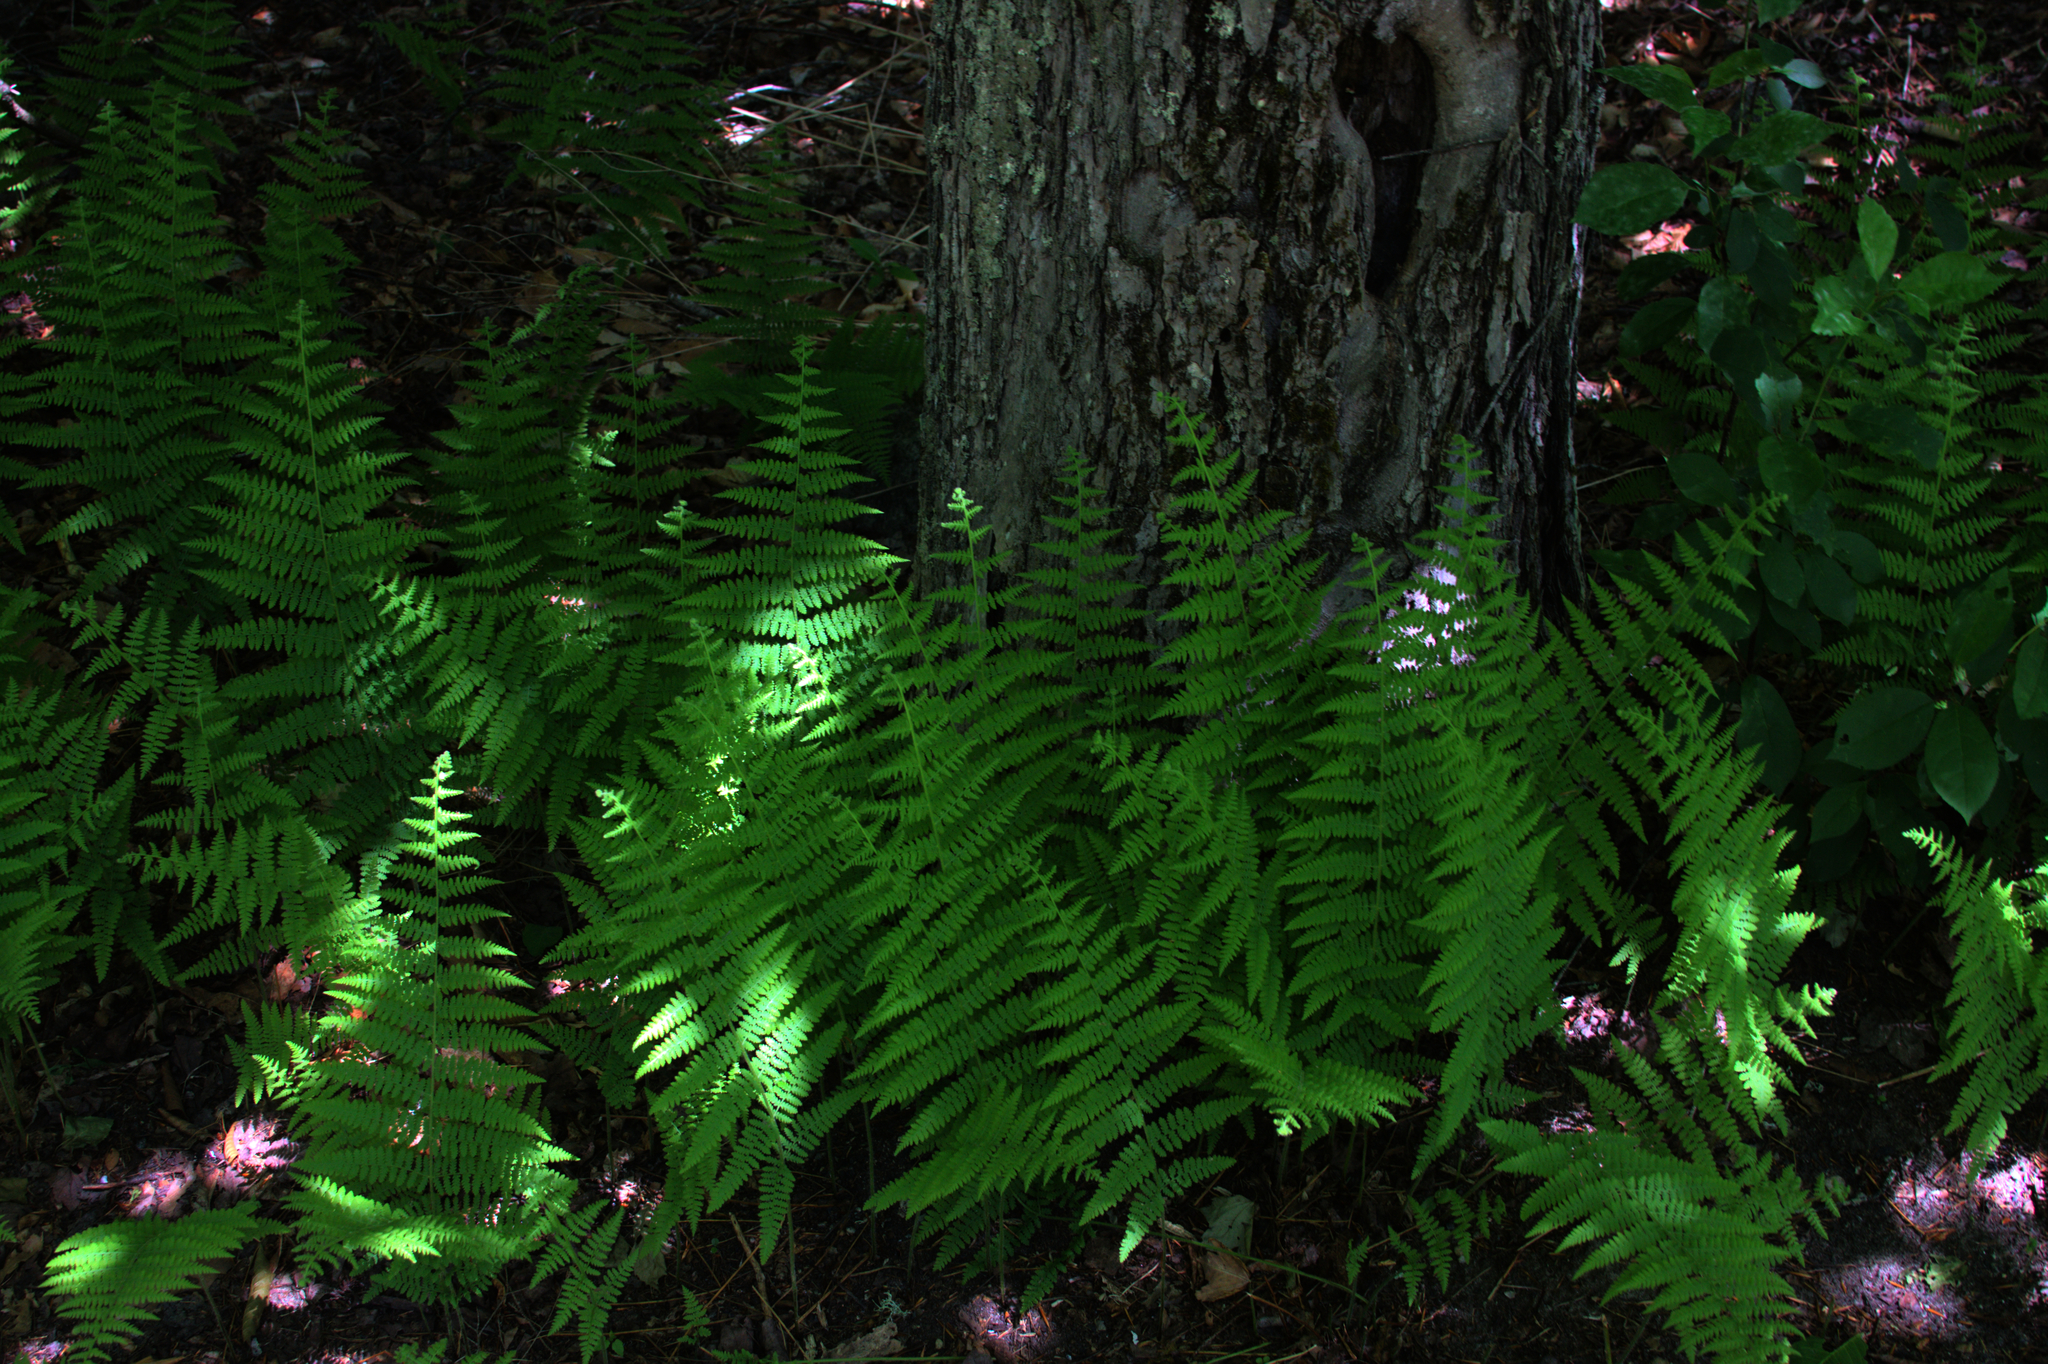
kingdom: Plantae
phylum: Tracheophyta
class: Polypodiopsida
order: Polypodiales
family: Dennstaedtiaceae
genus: Sitobolium
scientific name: Sitobolium punctilobum
